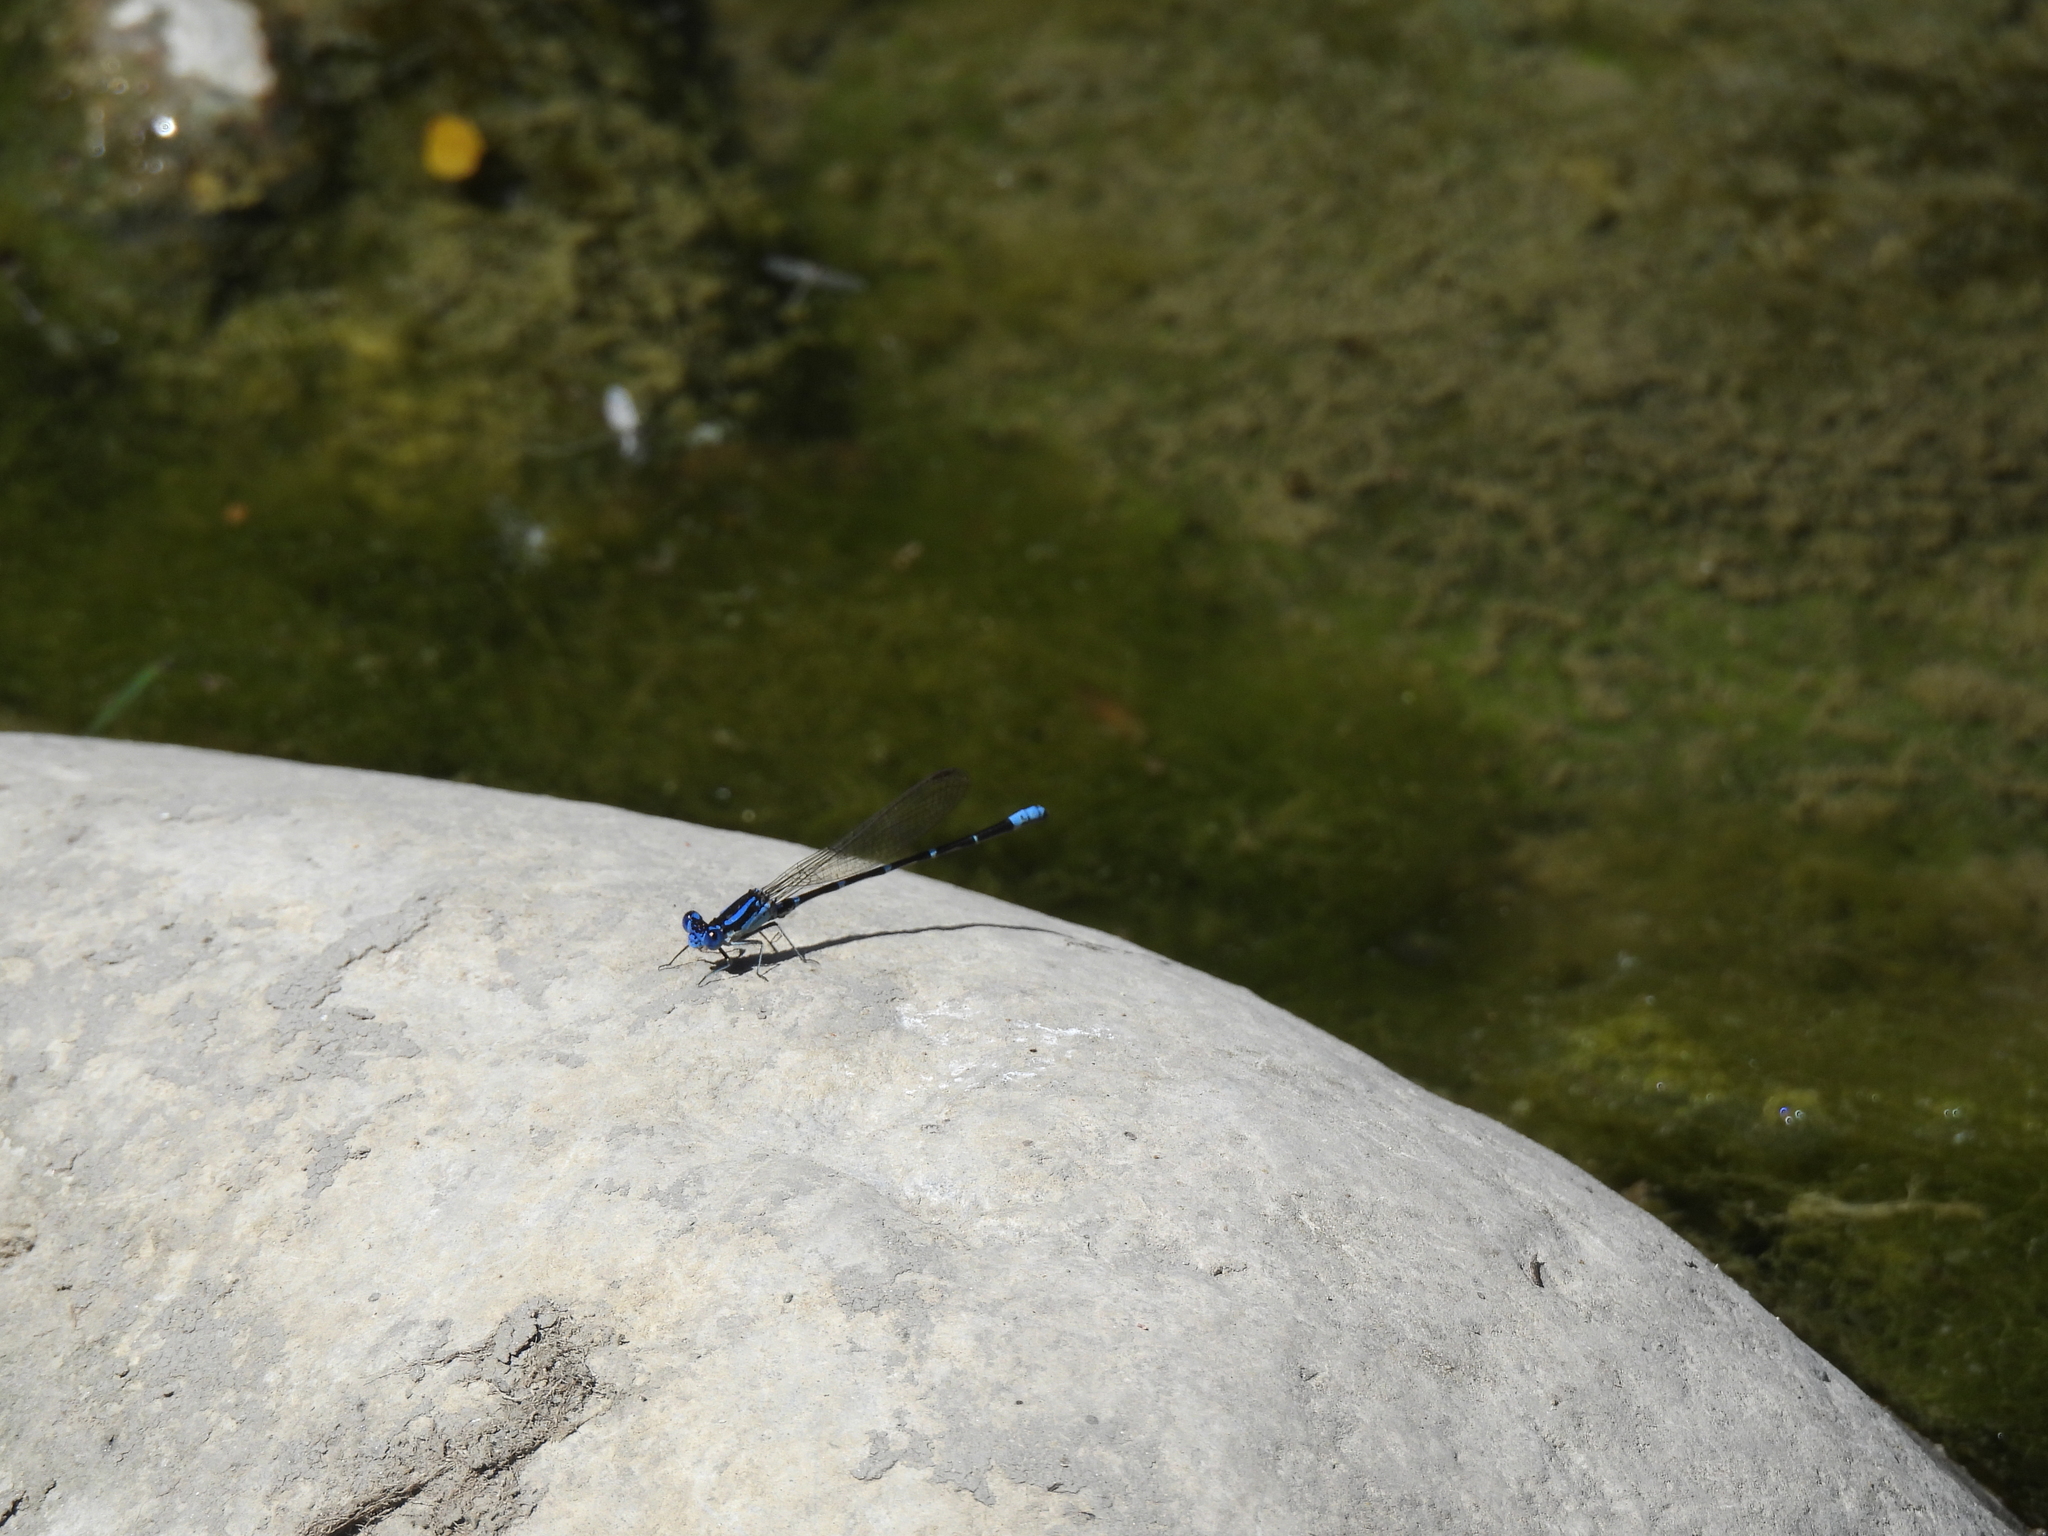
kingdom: Animalia
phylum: Arthropoda
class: Insecta
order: Odonata
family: Coenagrionidae
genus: Argia
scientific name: Argia sedula
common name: Blue-ringed dancer
